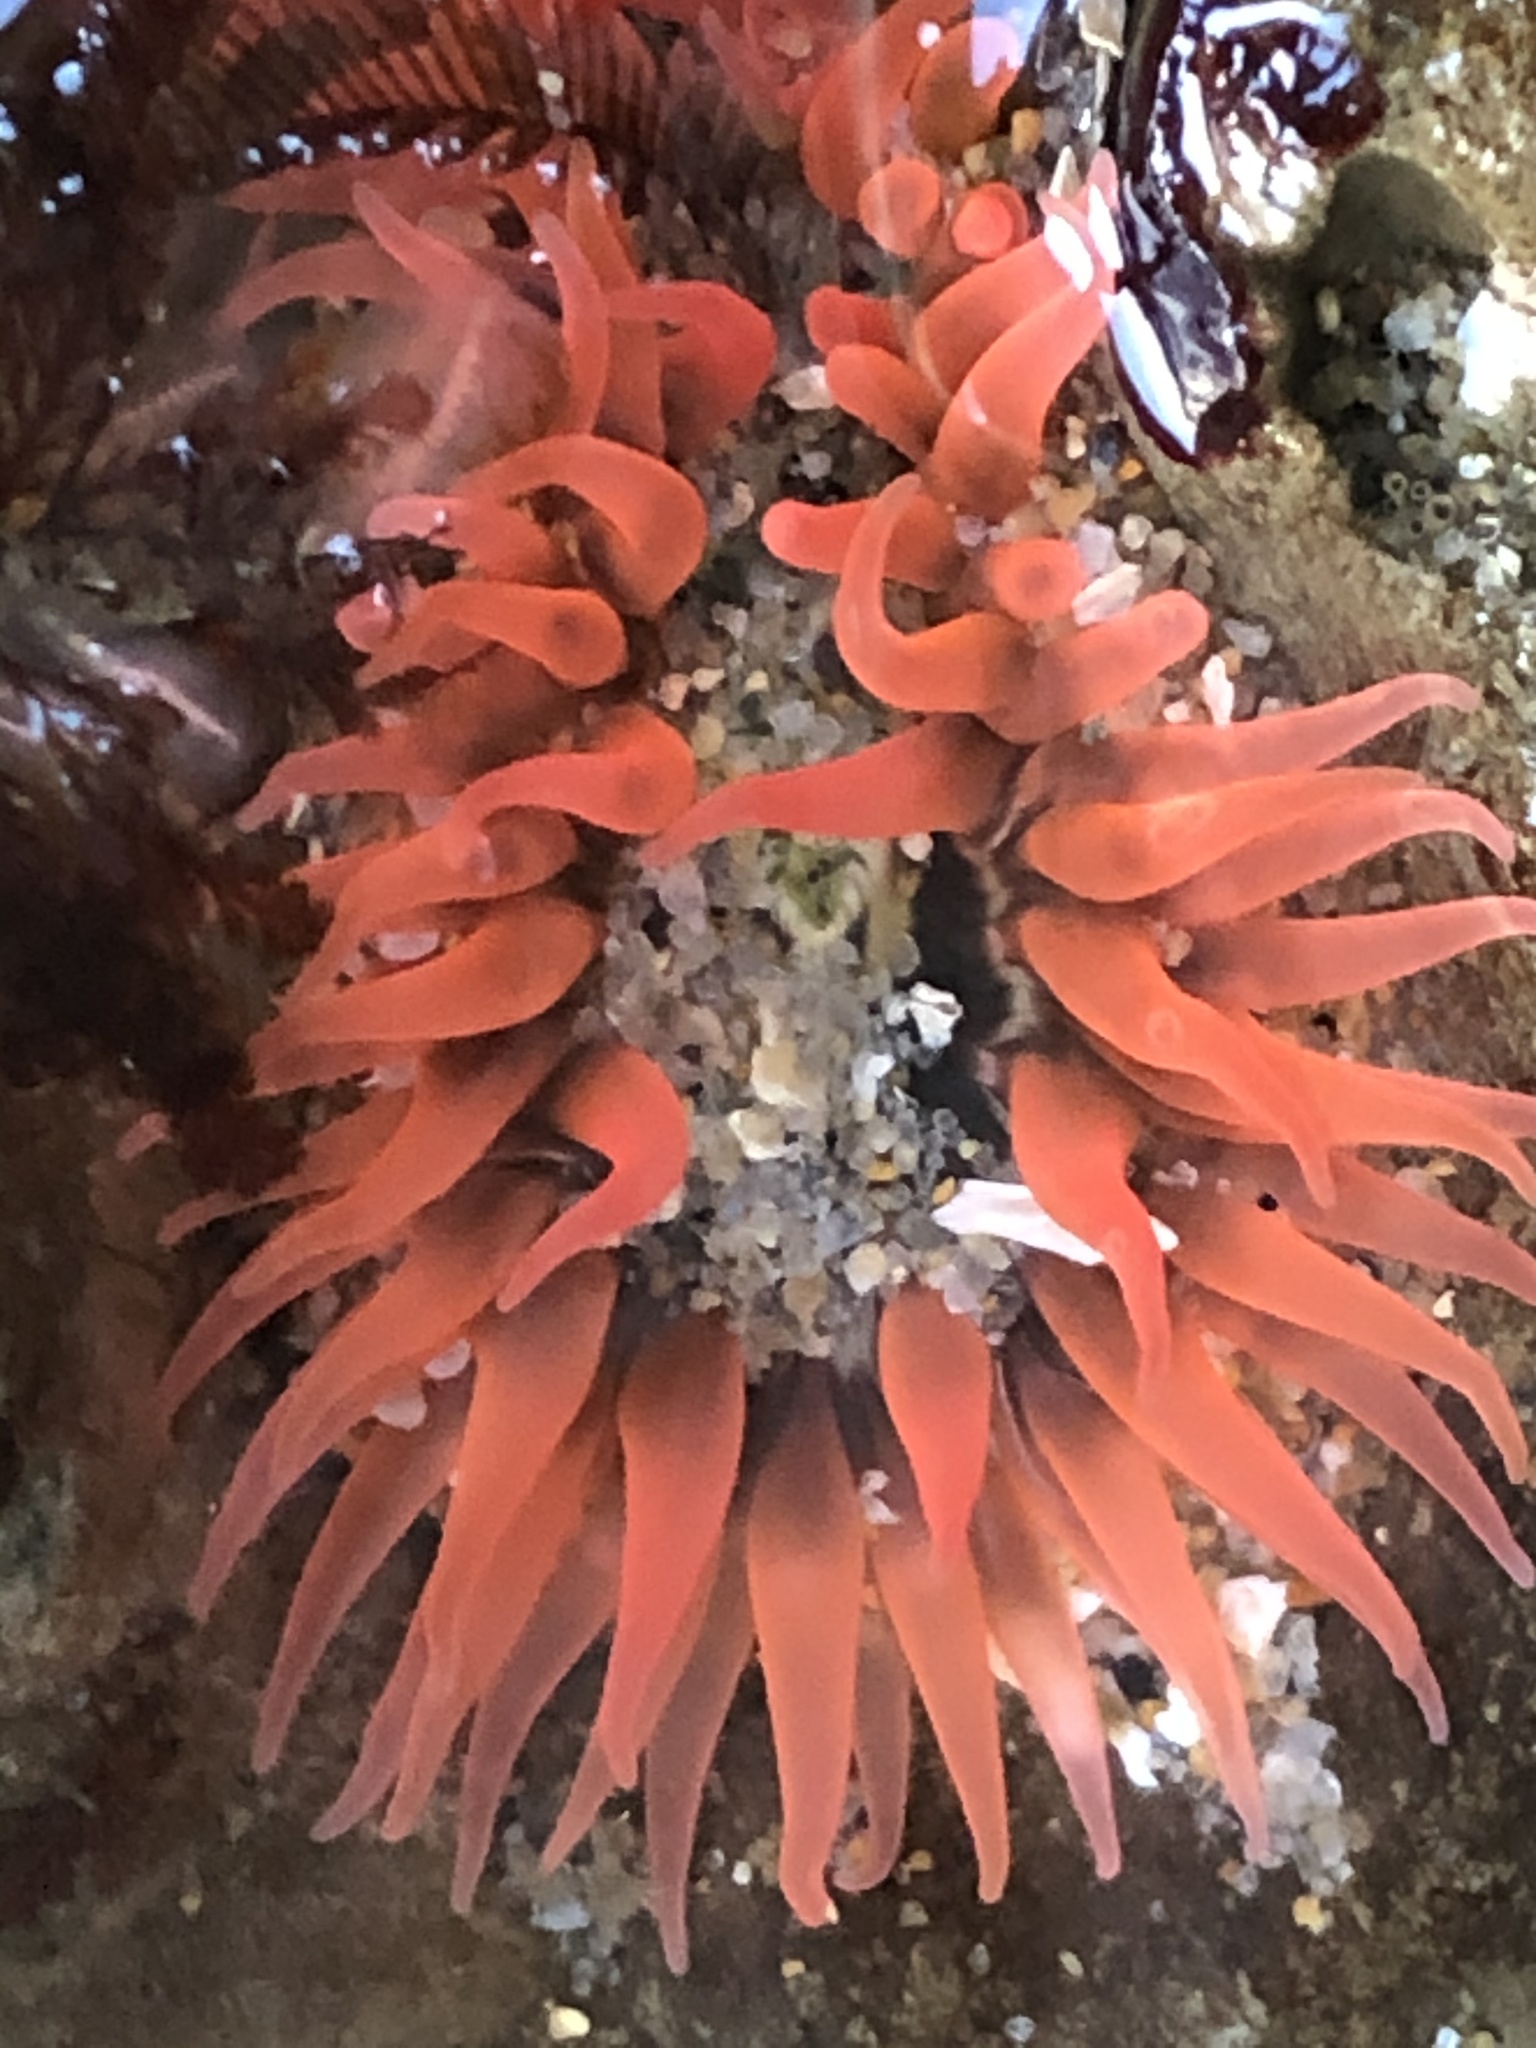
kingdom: Animalia
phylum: Cnidaria
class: Anthozoa
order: Actiniaria
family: Actiniidae
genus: Anthopleura
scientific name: Anthopleura artemisia
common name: Buried sea anemone
